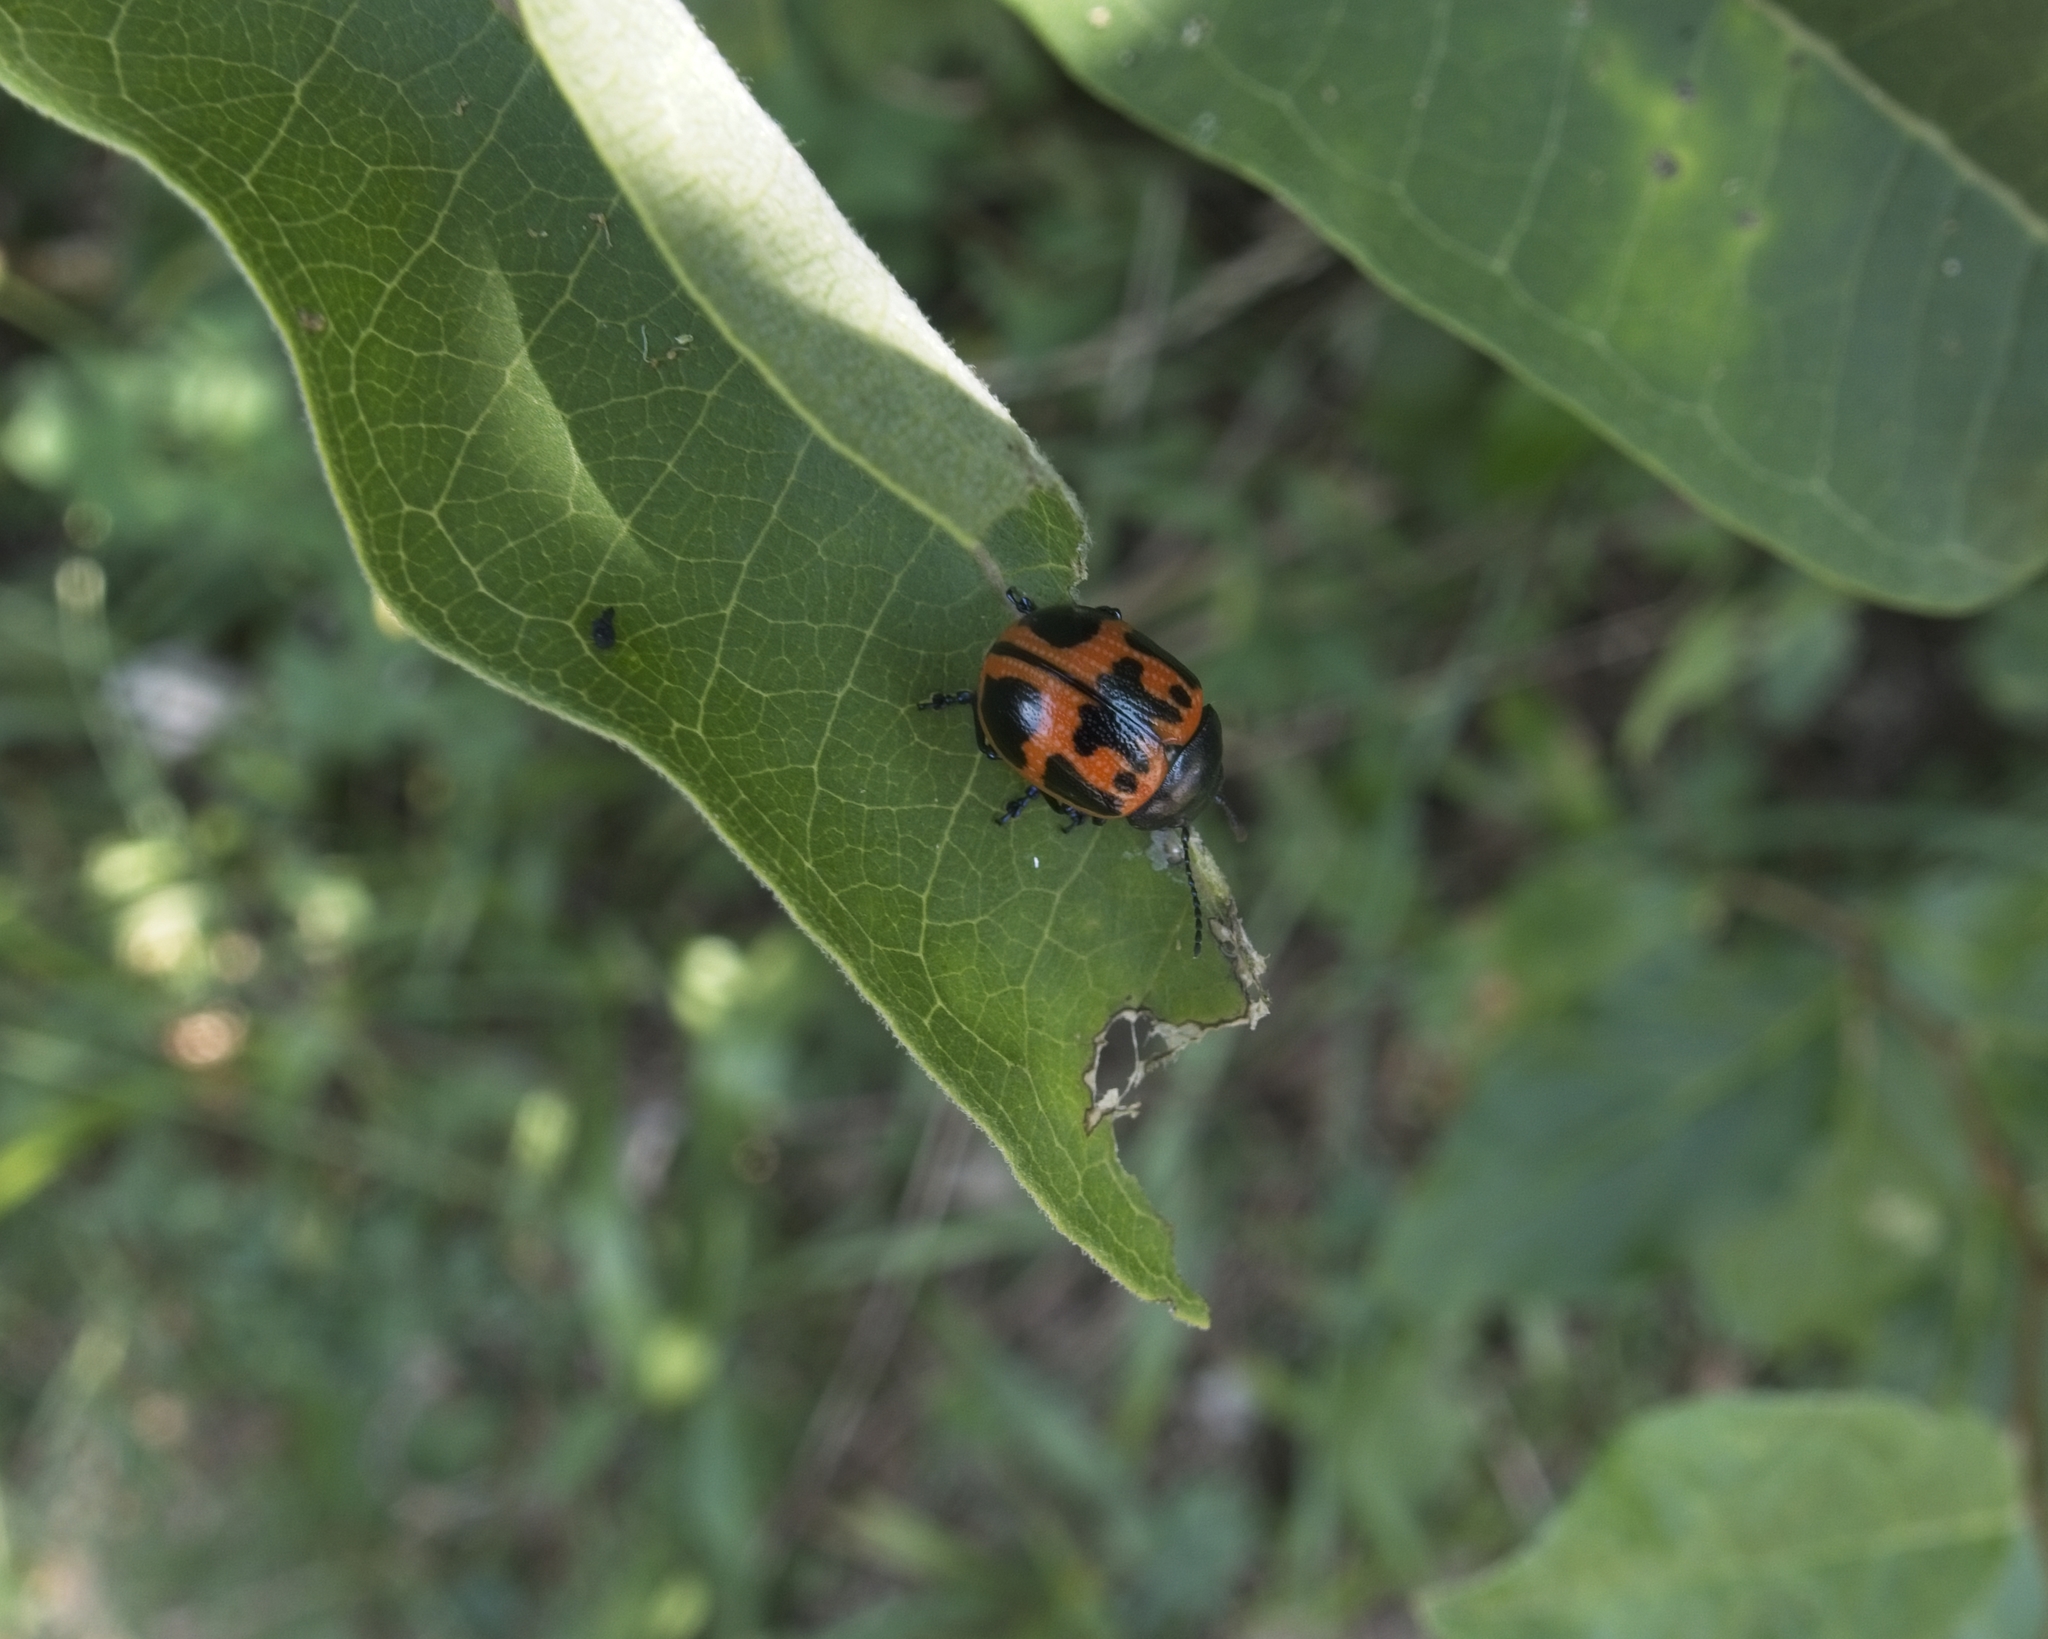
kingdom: Animalia
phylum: Arthropoda
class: Insecta
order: Coleoptera
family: Chrysomelidae
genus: Labidomera
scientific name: Labidomera clivicollis
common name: Swamp milkweed leaf beetle
